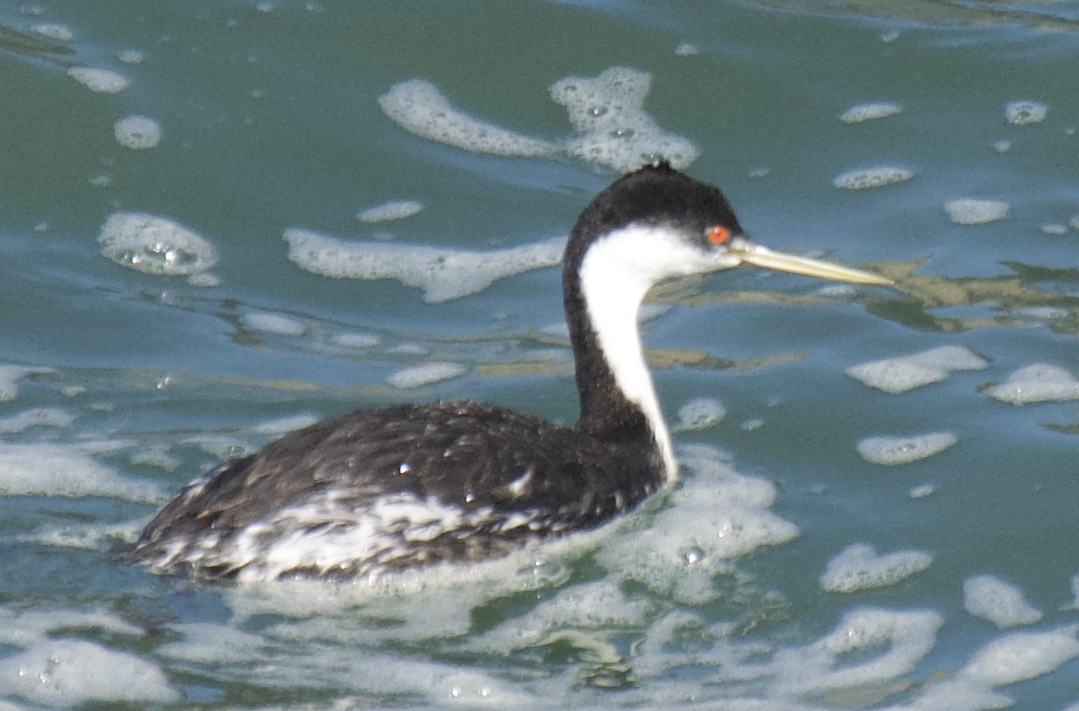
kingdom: Animalia
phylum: Chordata
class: Aves
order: Podicipediformes
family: Podicipedidae
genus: Aechmophorus
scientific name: Aechmophorus occidentalis
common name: Western grebe
